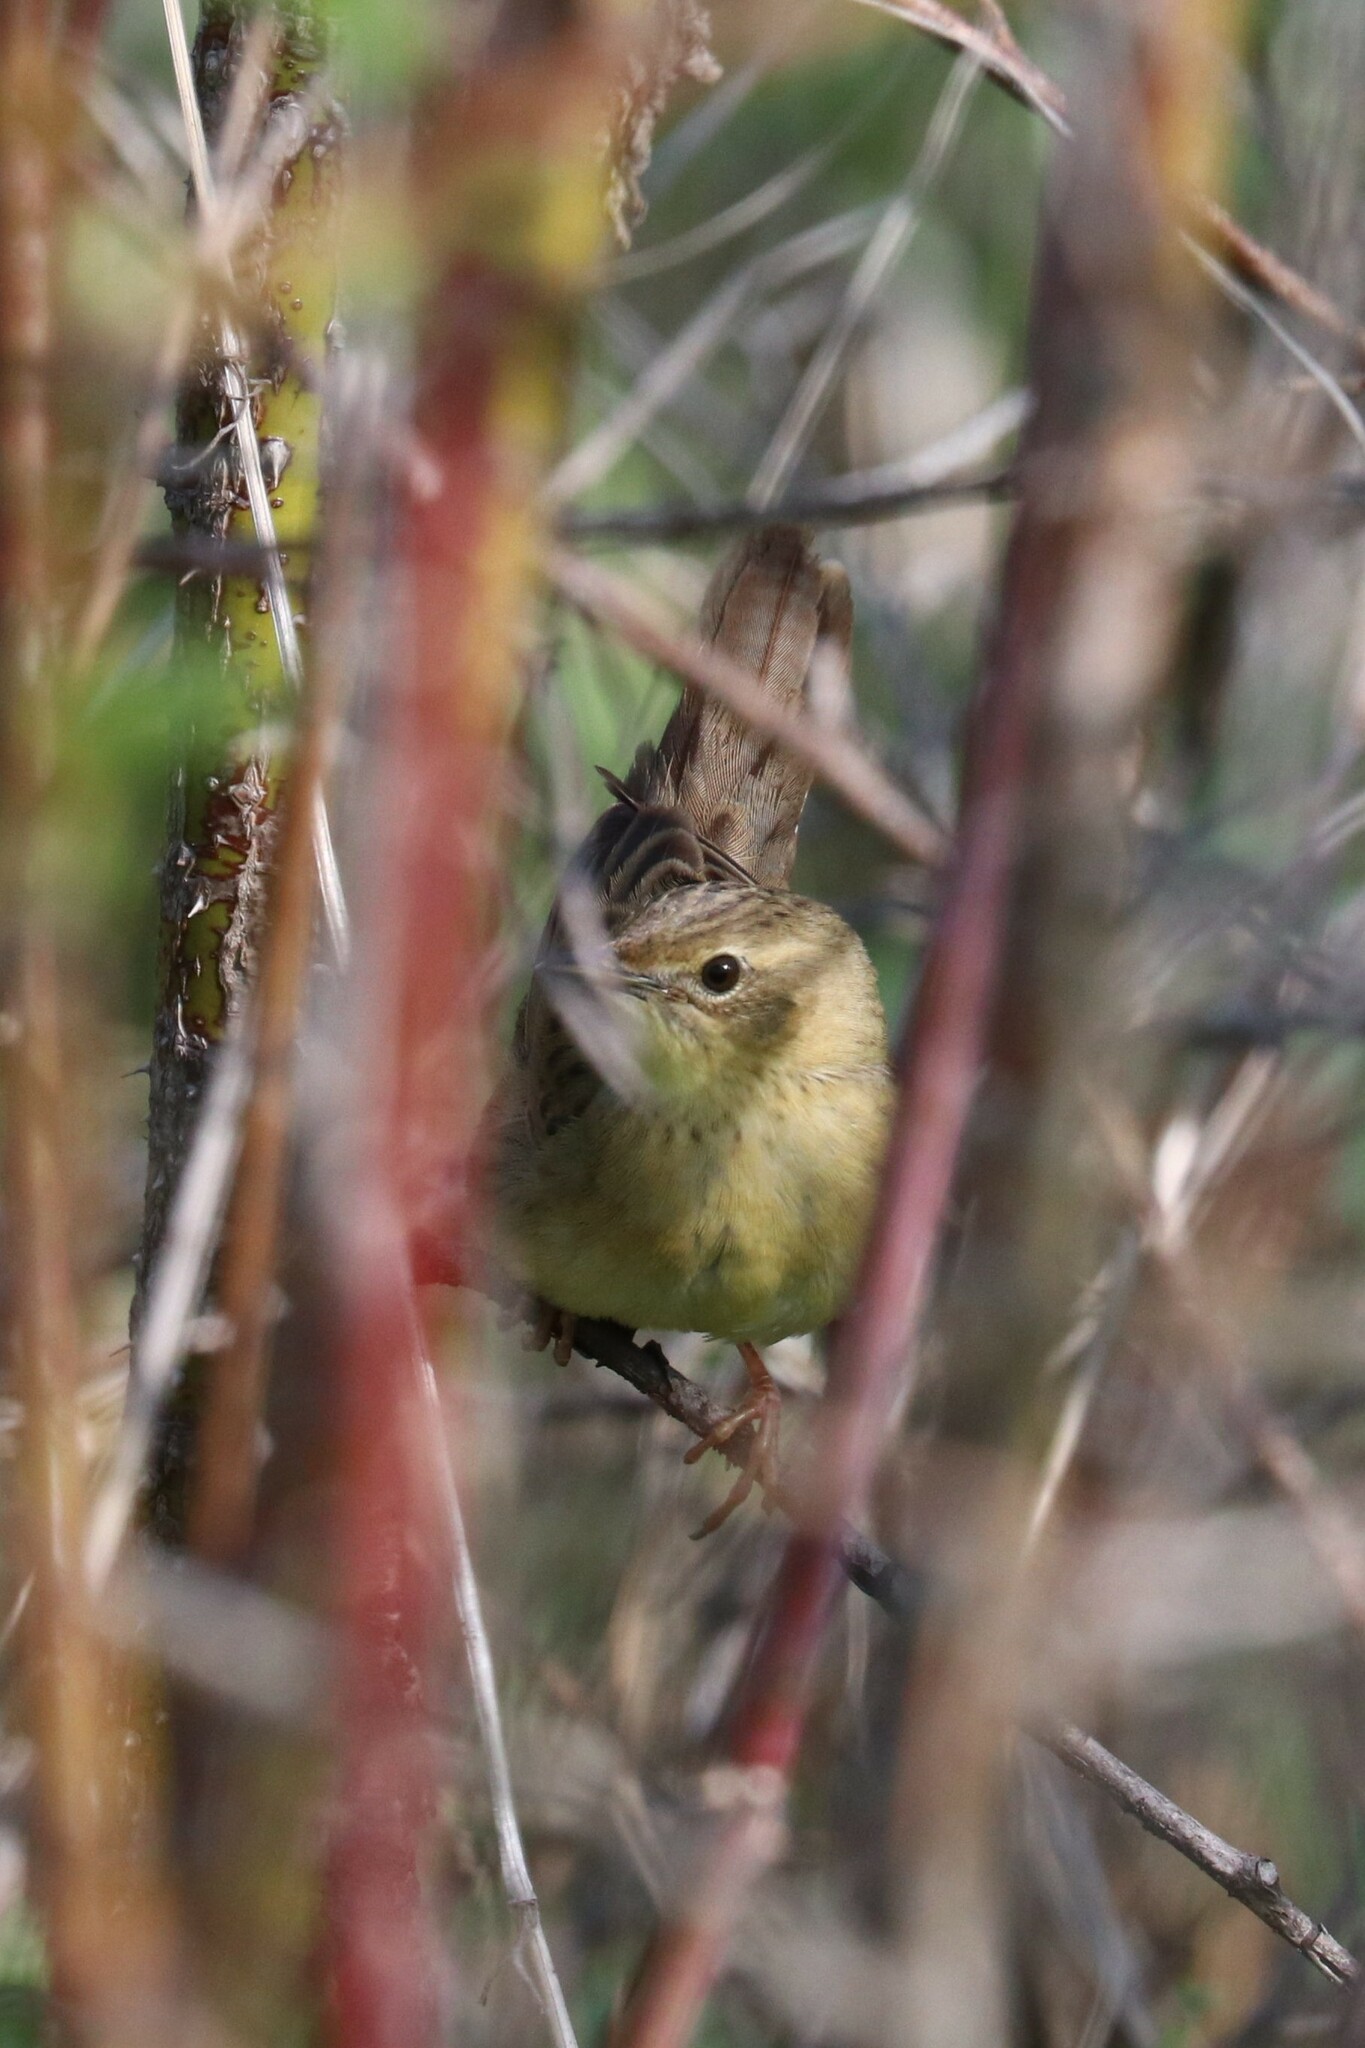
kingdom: Animalia
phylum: Chordata
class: Aves
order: Passeriformes
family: Locustellidae
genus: Locustella
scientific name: Locustella naevia
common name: Common grasshopper warbler
